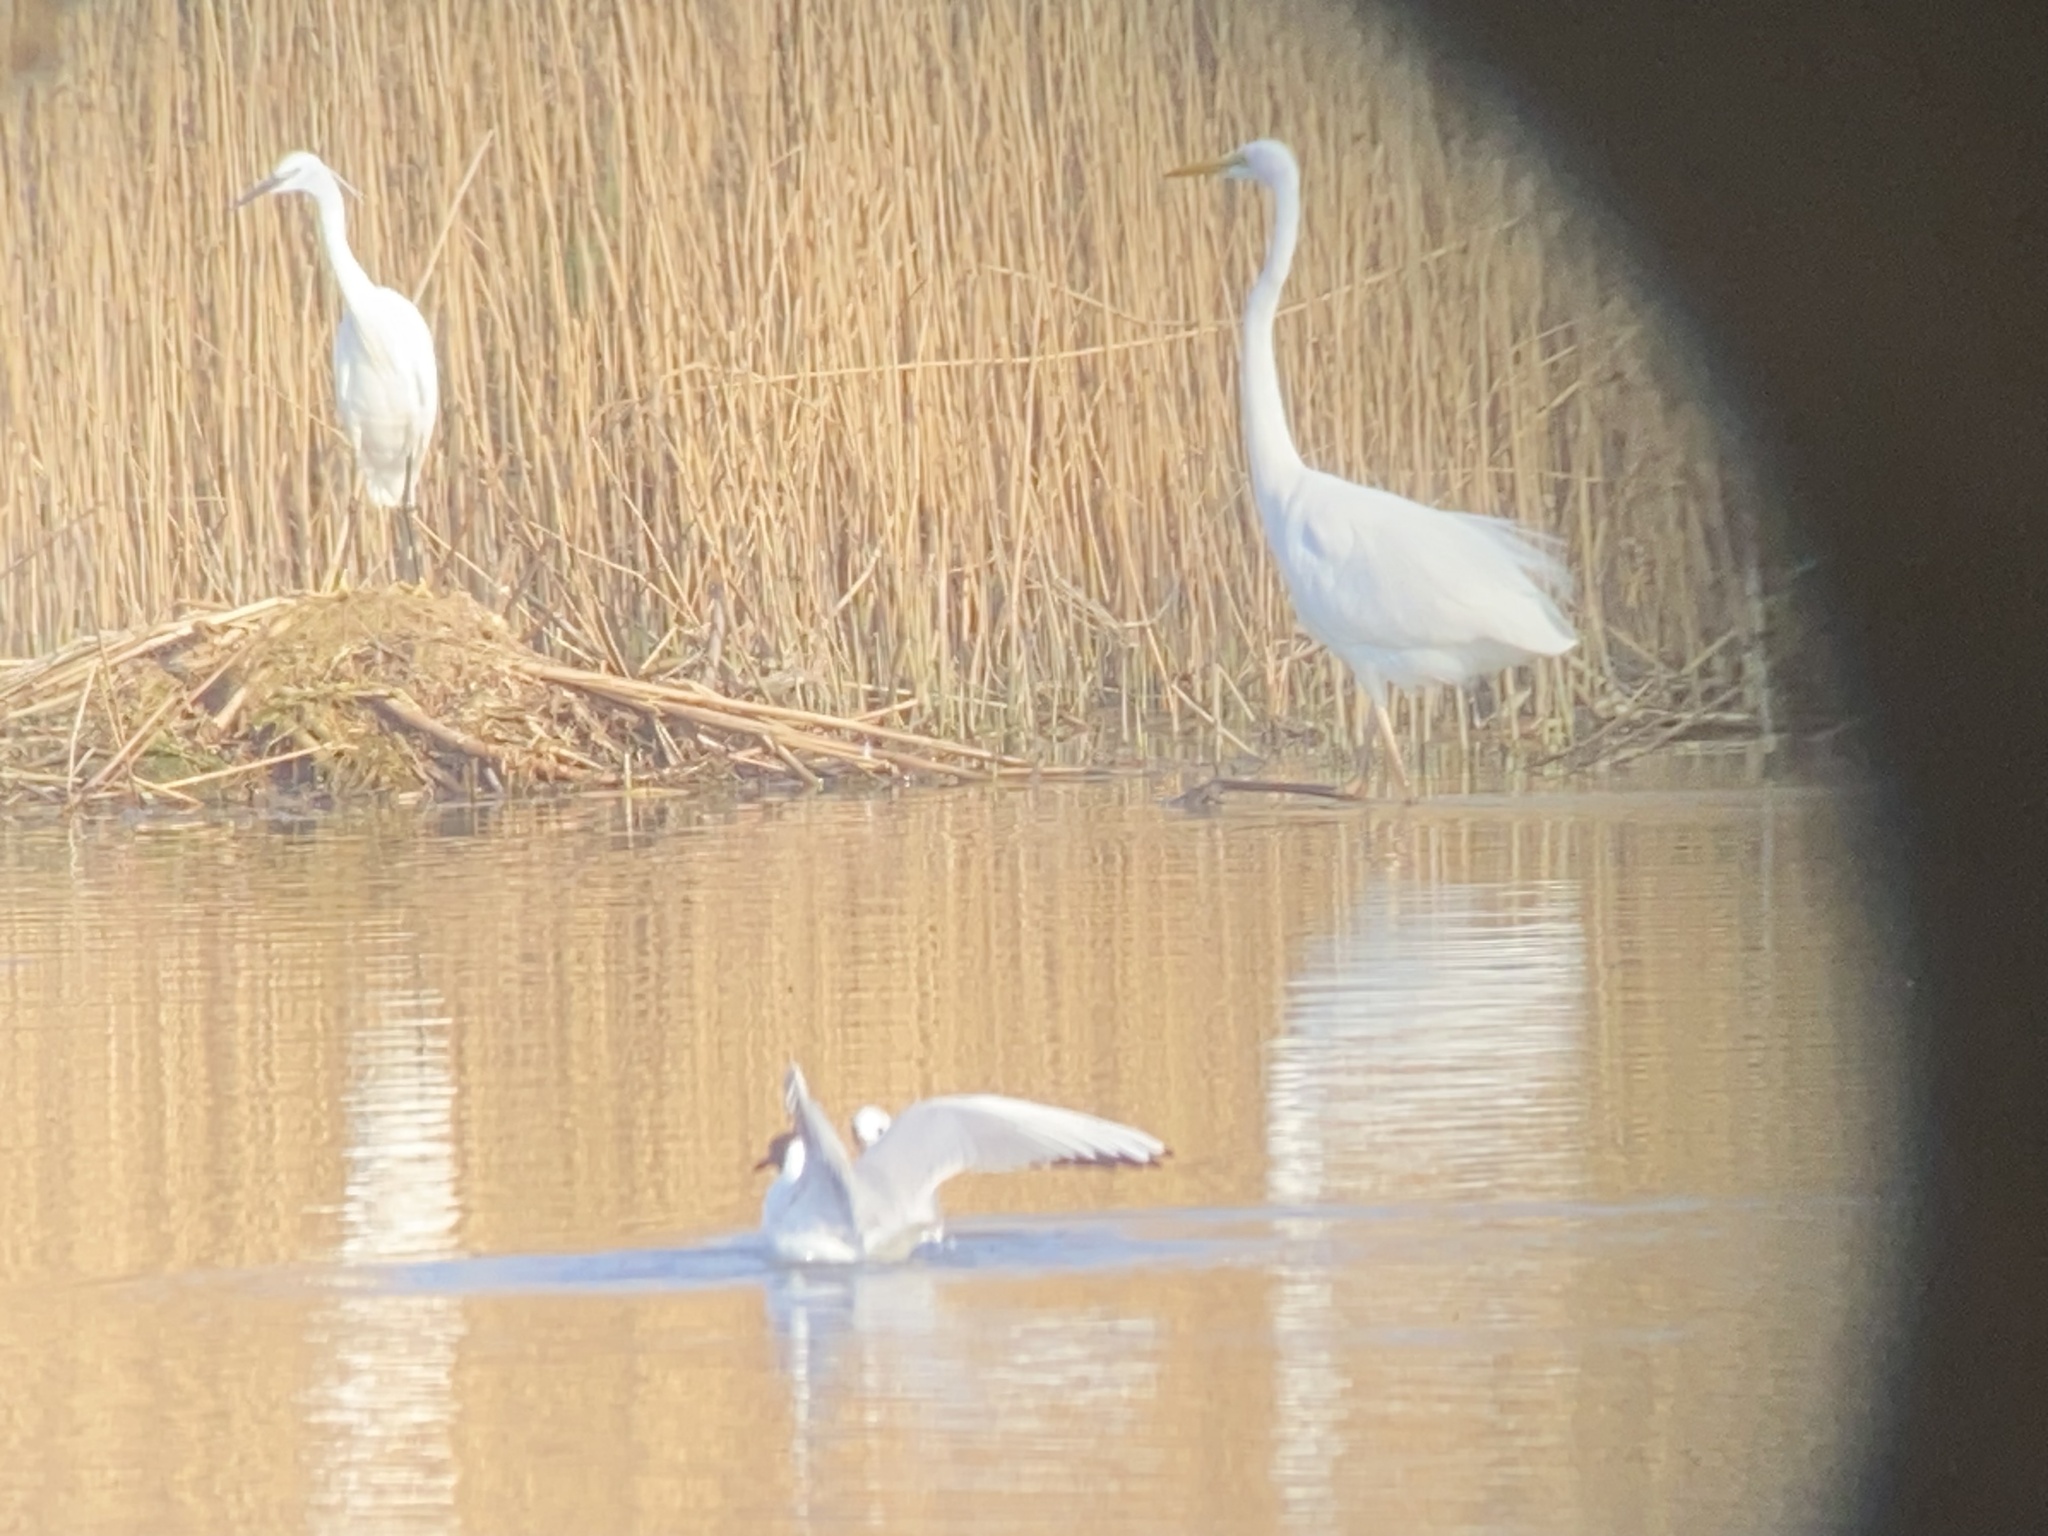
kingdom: Animalia
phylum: Chordata
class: Aves
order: Pelecaniformes
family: Ardeidae
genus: Ardea
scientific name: Ardea alba
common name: Great egret
